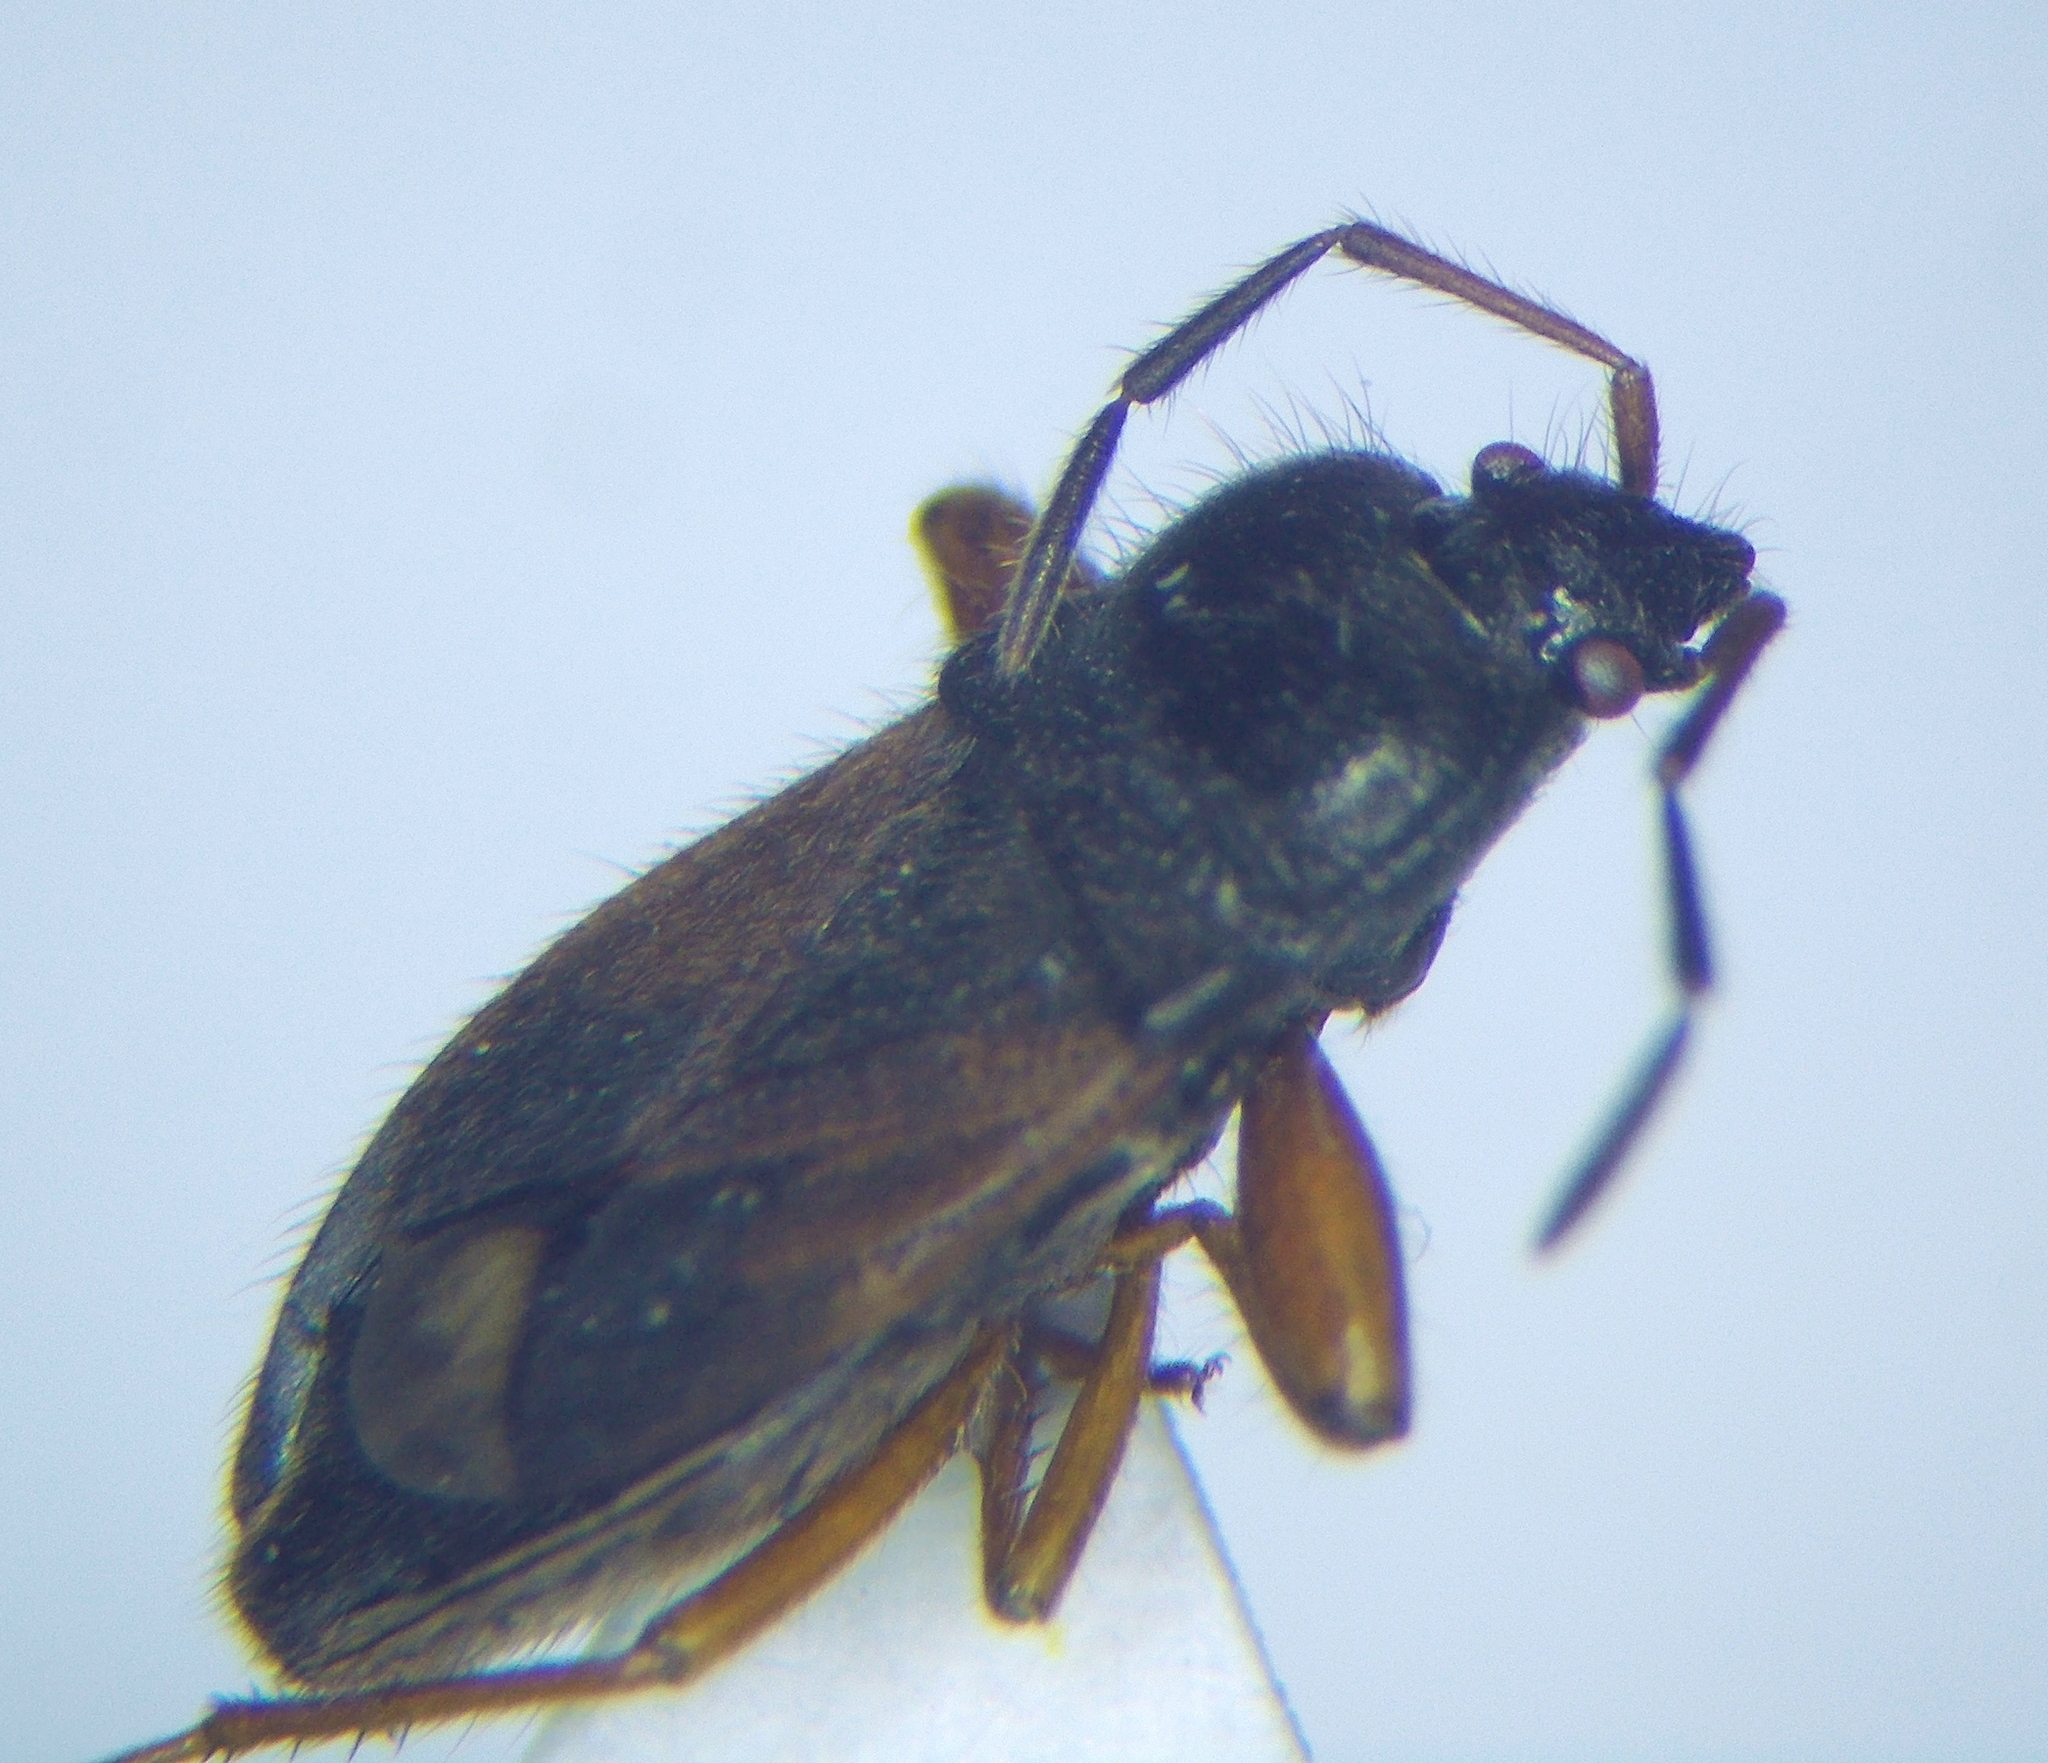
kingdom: Animalia
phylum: Arthropoda
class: Insecta
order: Hemiptera
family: Rhyparochromidae
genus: Megalonotus
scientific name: Megalonotus lederi
